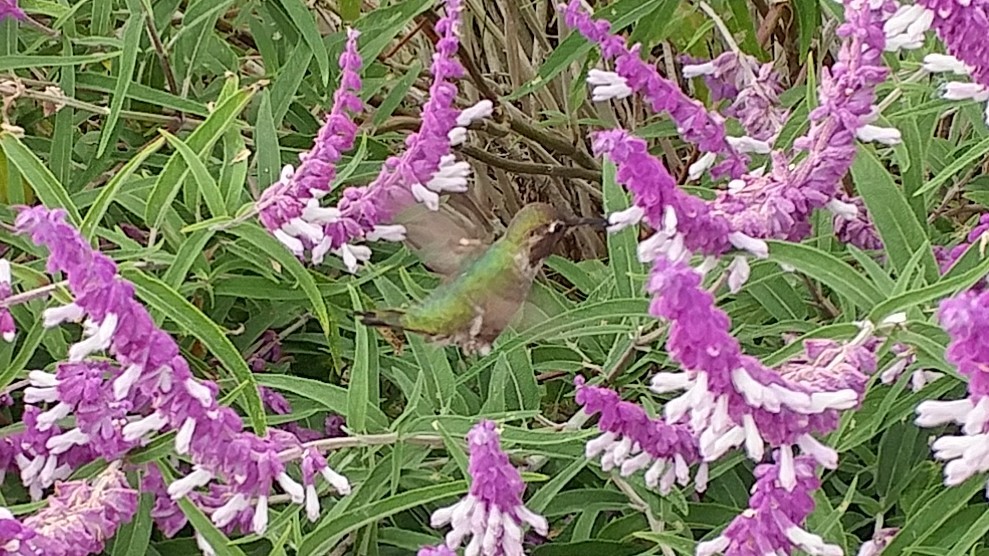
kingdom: Animalia
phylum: Chordata
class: Aves
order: Apodiformes
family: Trochilidae
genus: Calypte
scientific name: Calypte anna
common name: Anna's hummingbird
